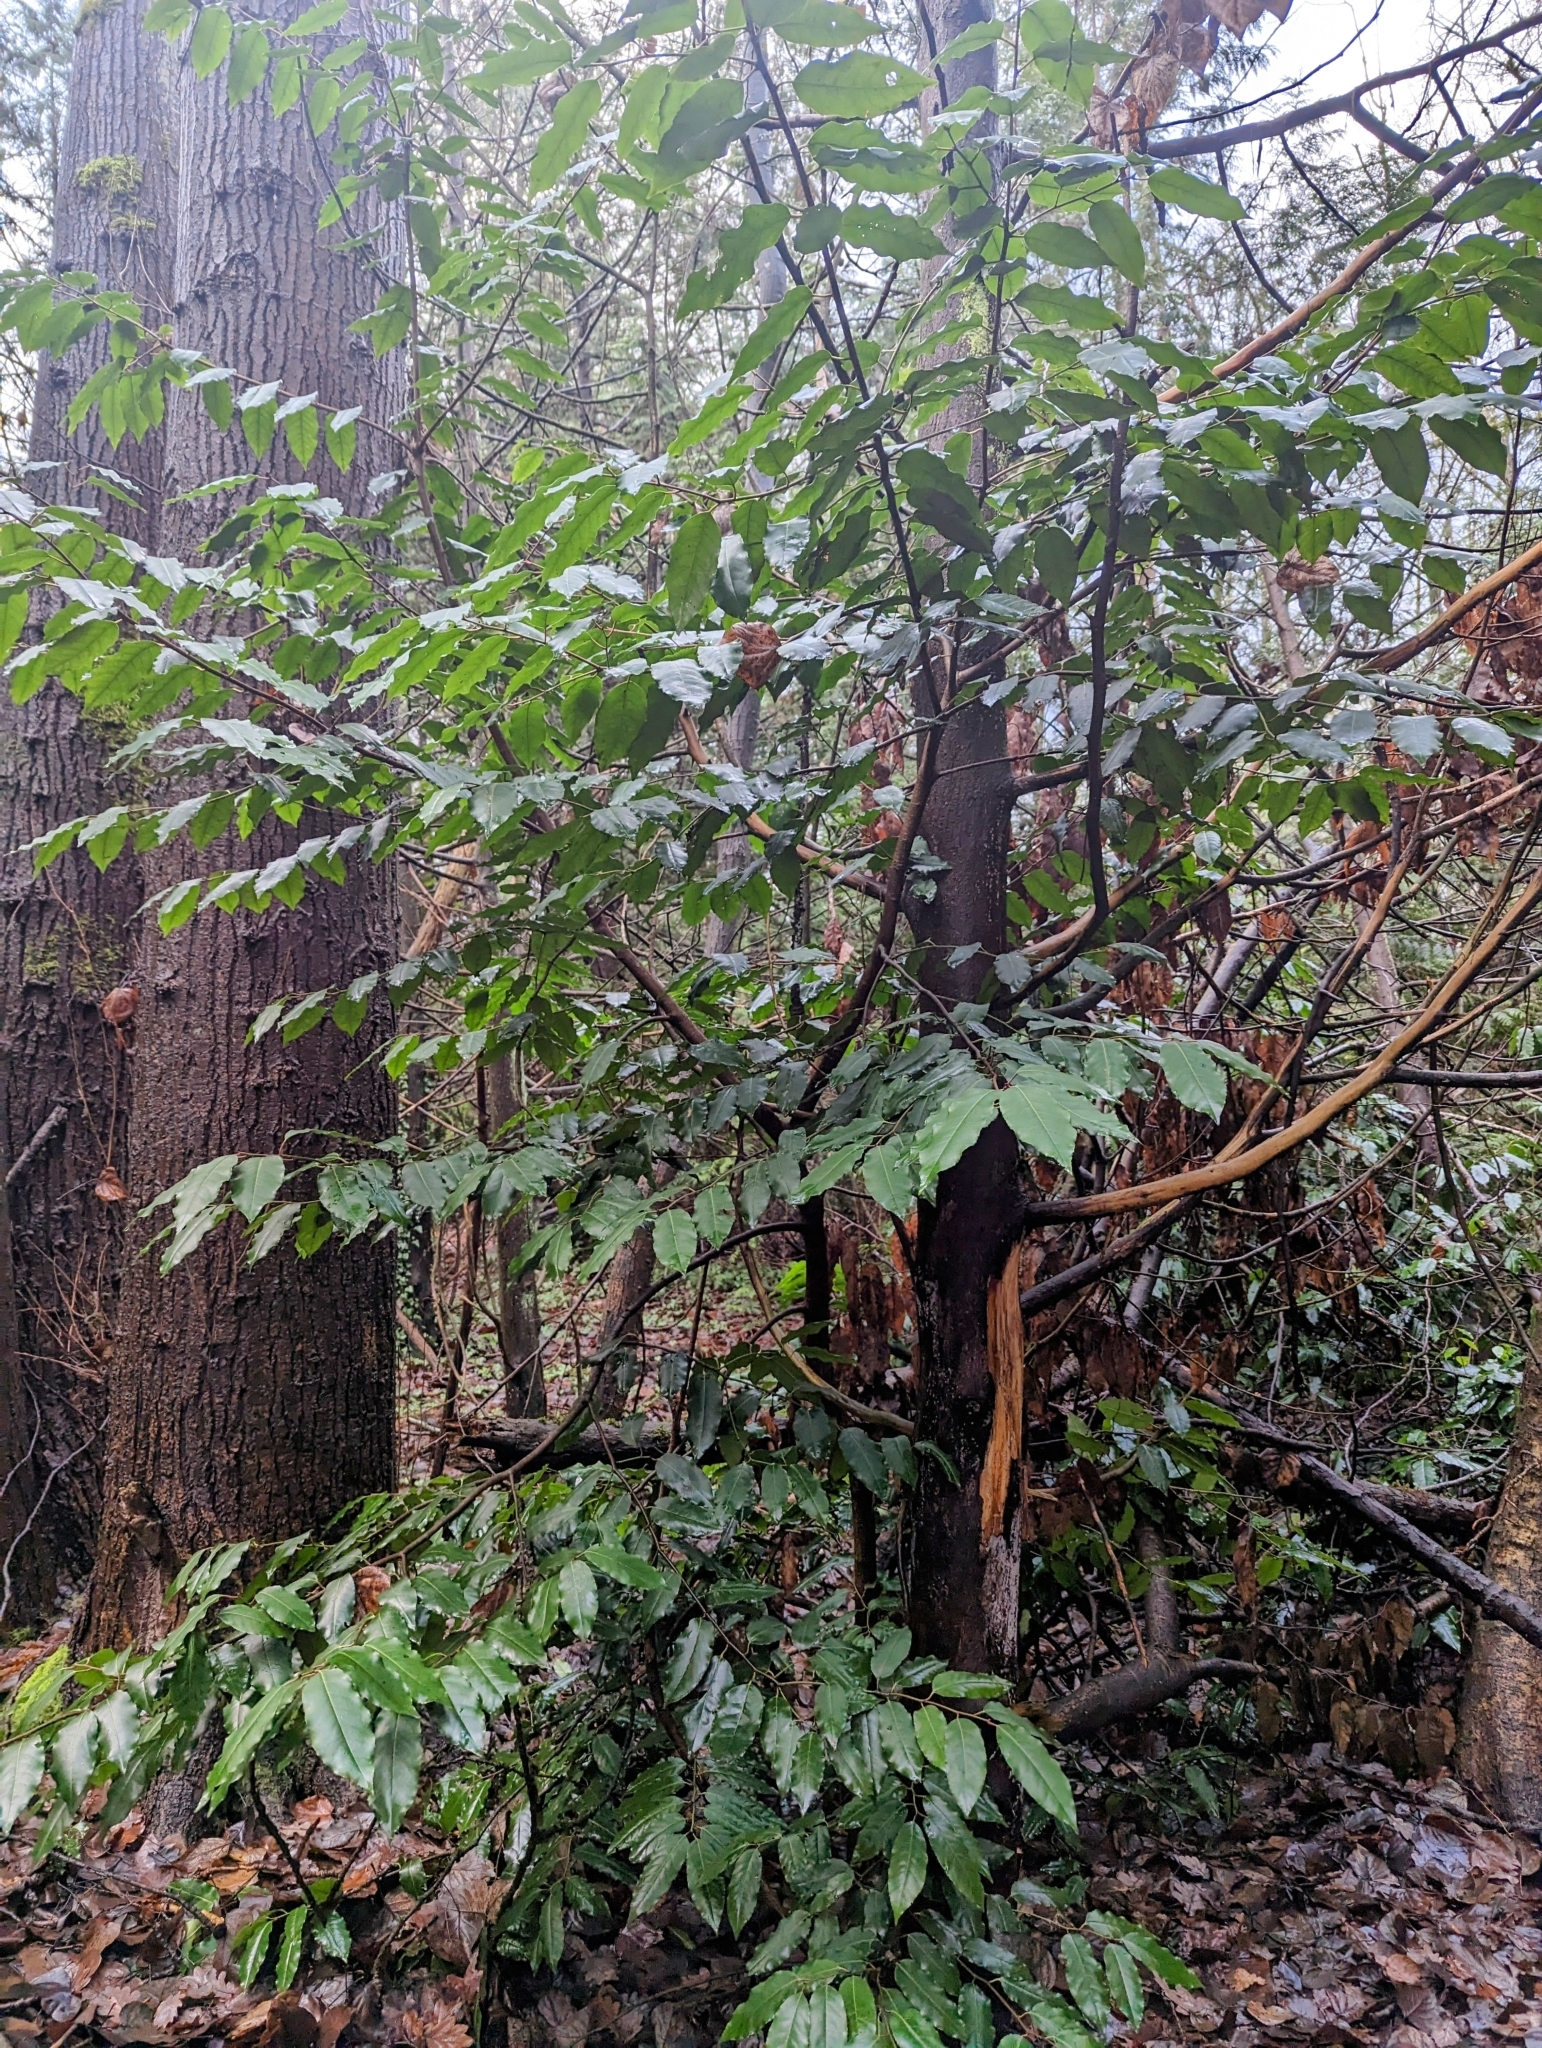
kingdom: Plantae
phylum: Tracheophyta
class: Magnoliopsida
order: Rosales
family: Rosaceae
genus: Prunus
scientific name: Prunus lusitanica
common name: Portugal laurel
